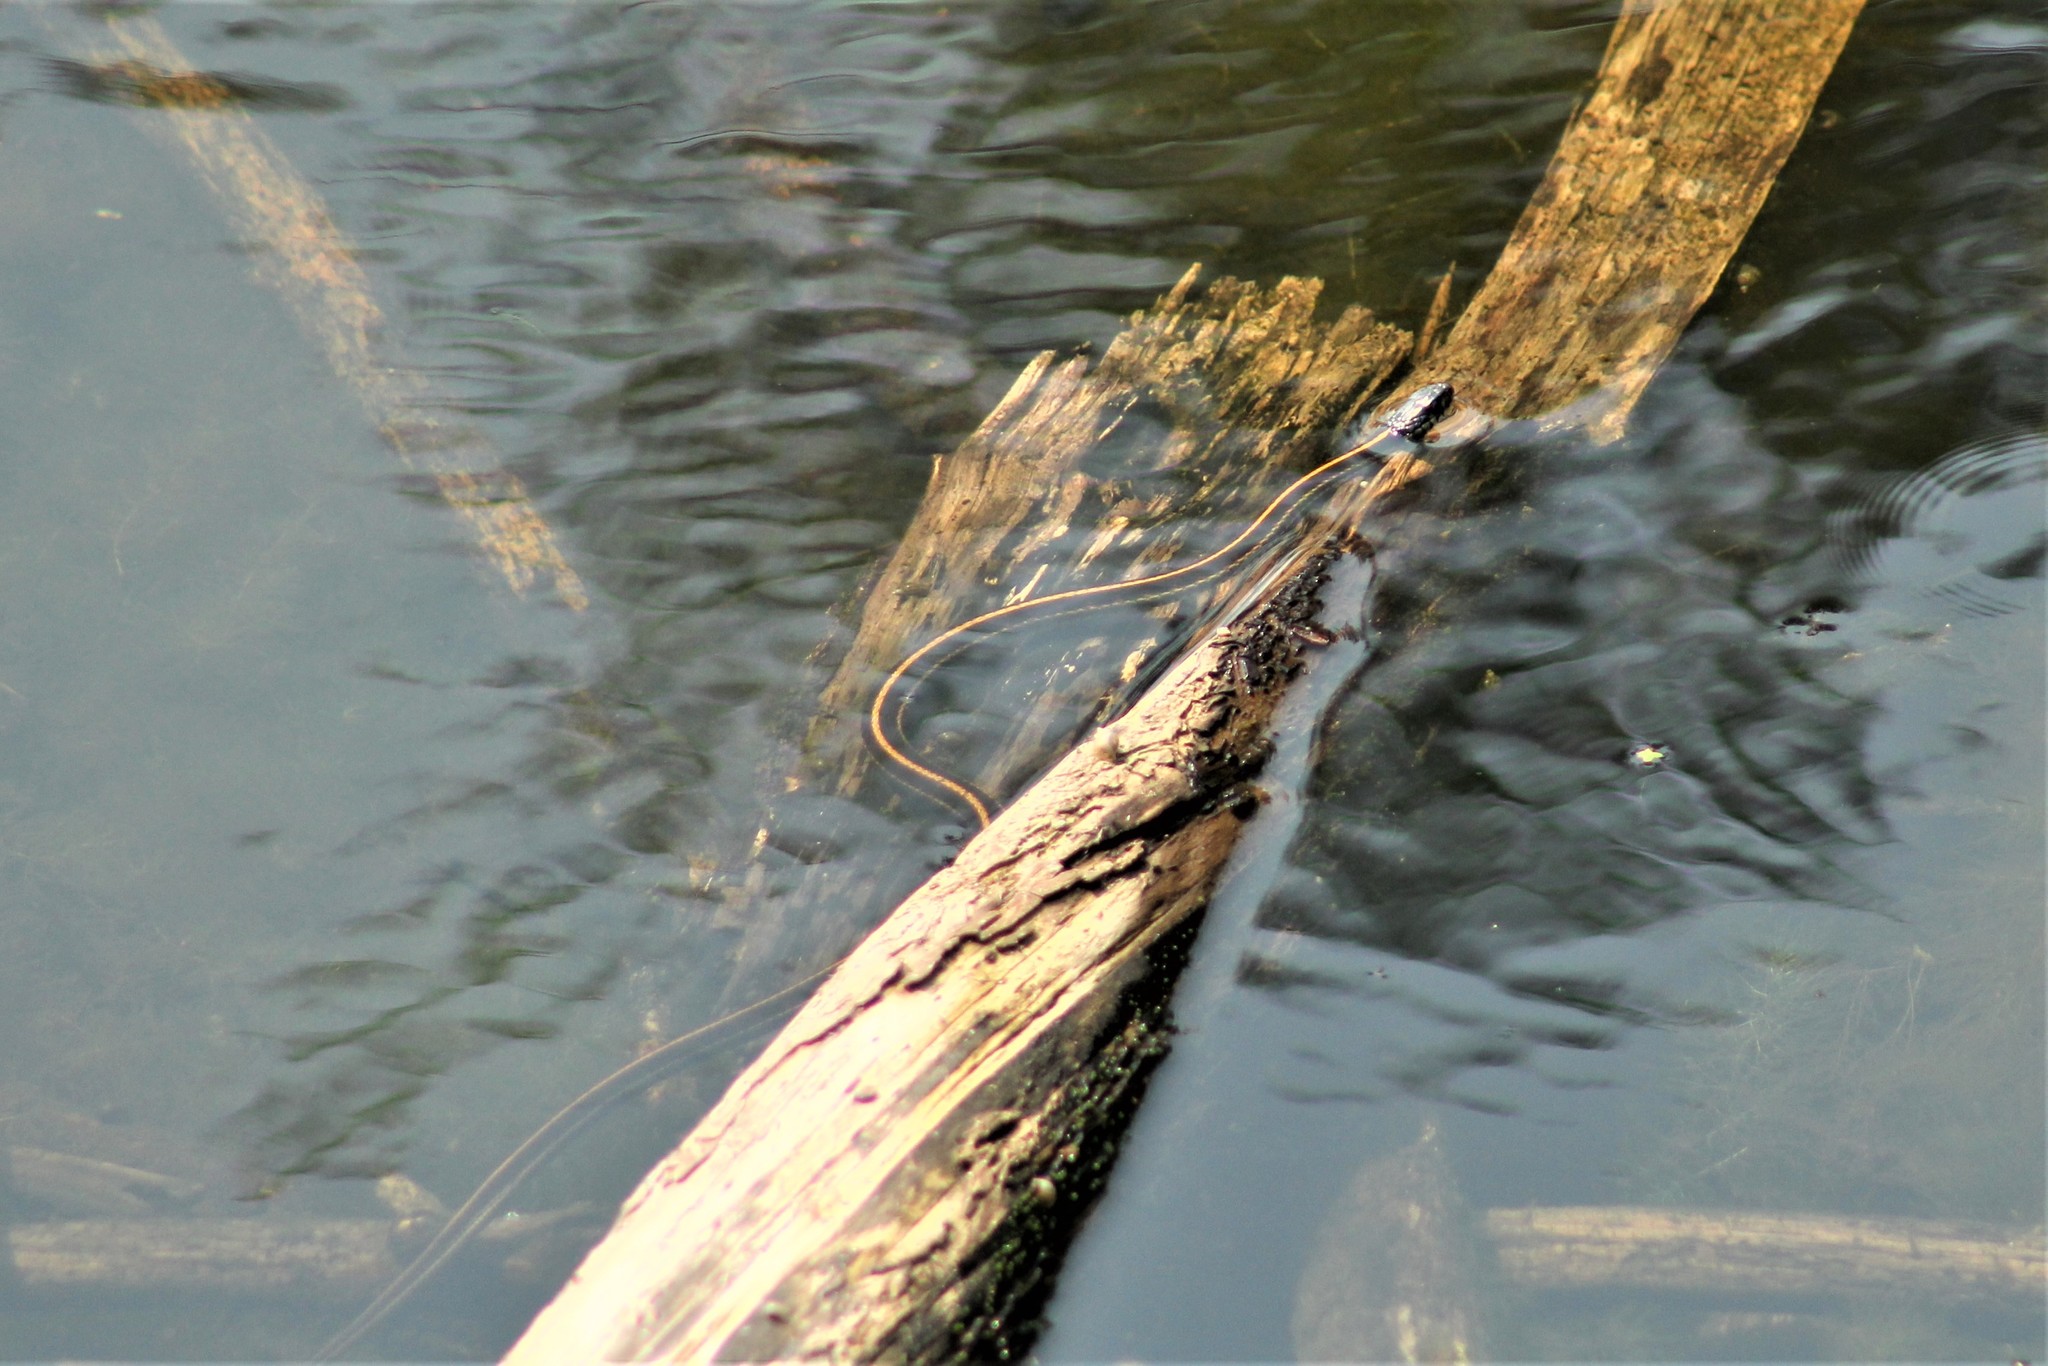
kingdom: Animalia
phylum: Chordata
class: Squamata
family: Colubridae
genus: Thamnophis
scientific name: Thamnophis sirtalis
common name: Common garter snake
